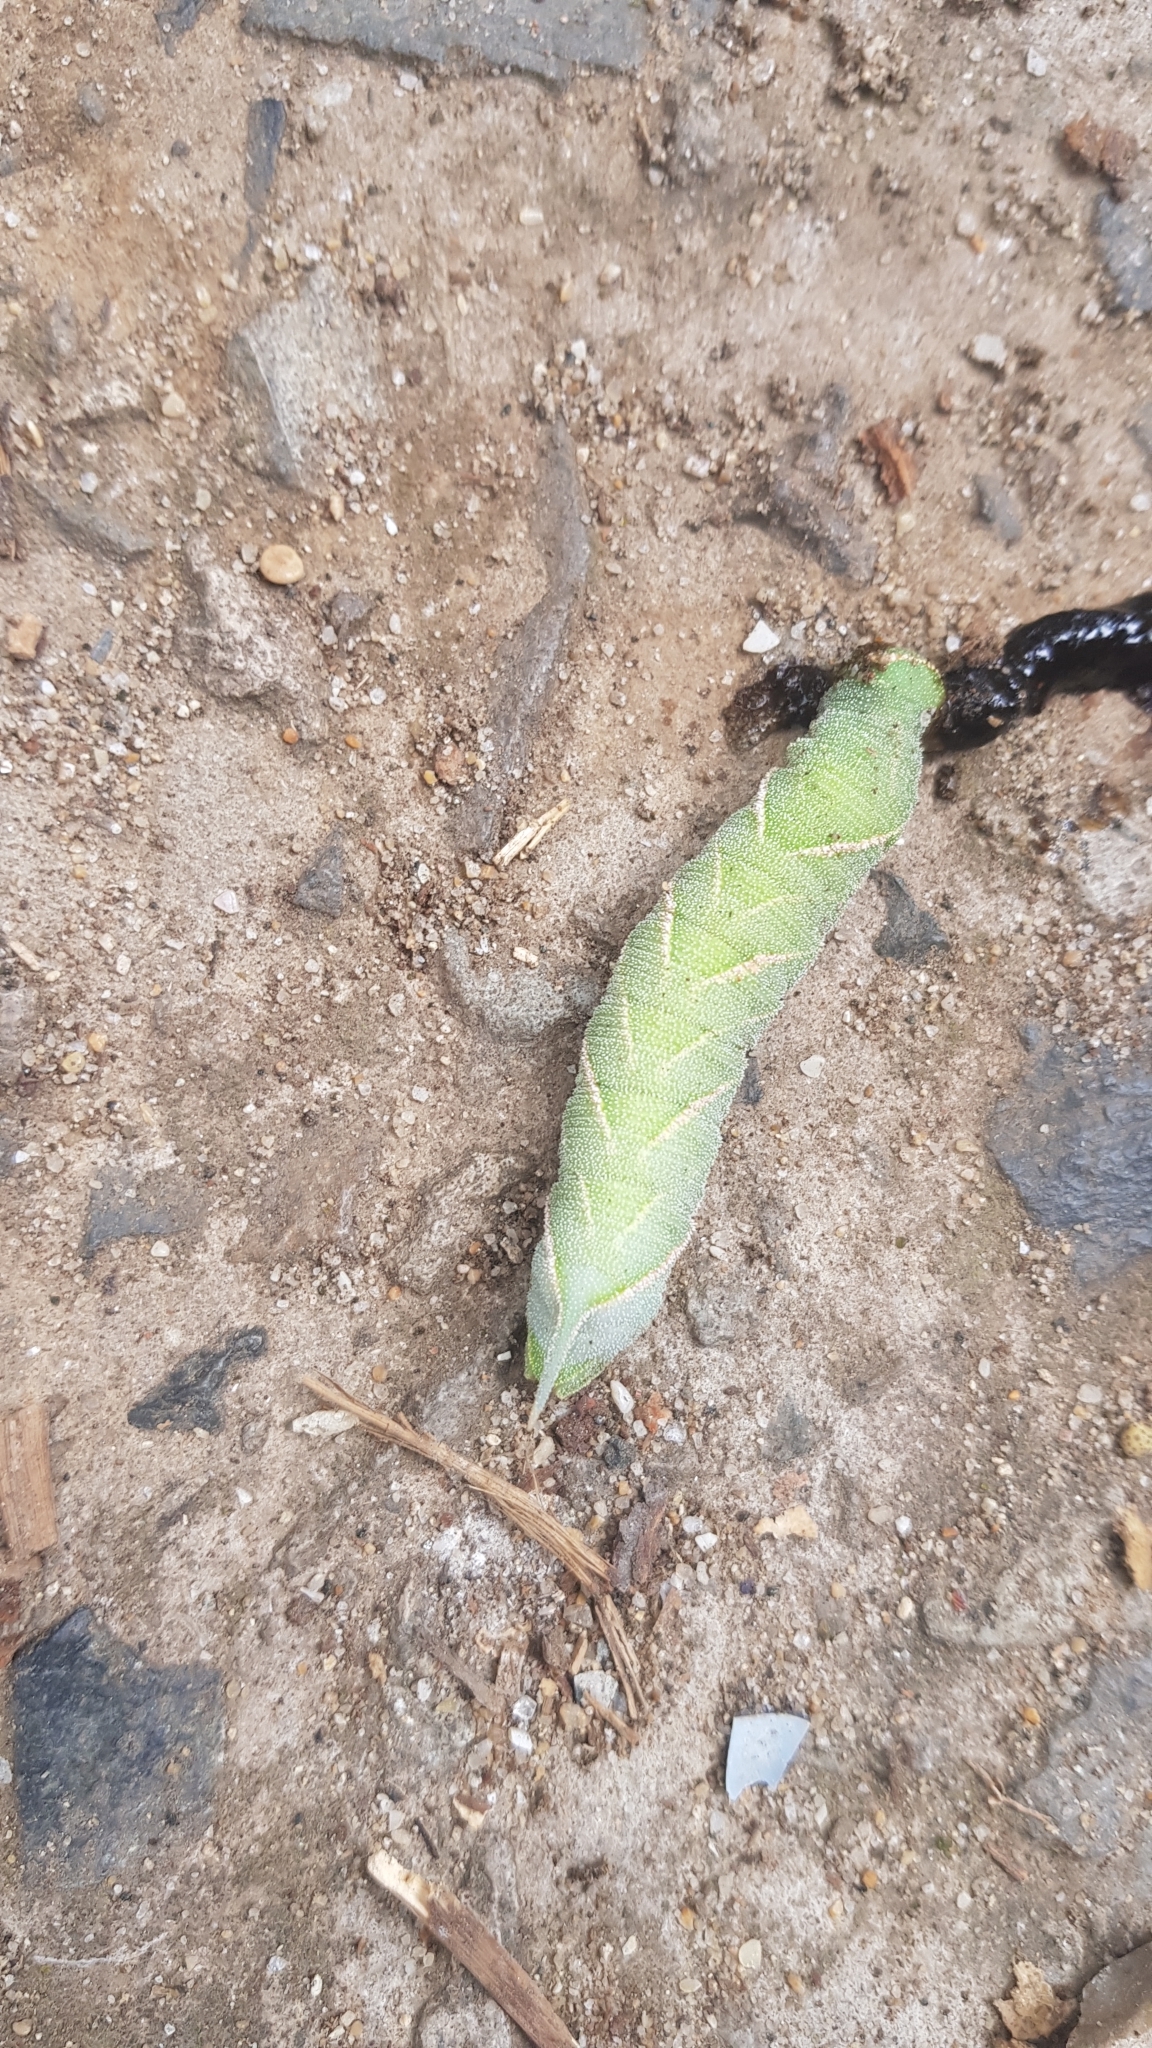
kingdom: Animalia
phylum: Arthropoda
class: Insecta
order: Lepidoptera
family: Sphingidae
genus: Marumba
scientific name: Marumba quercus
